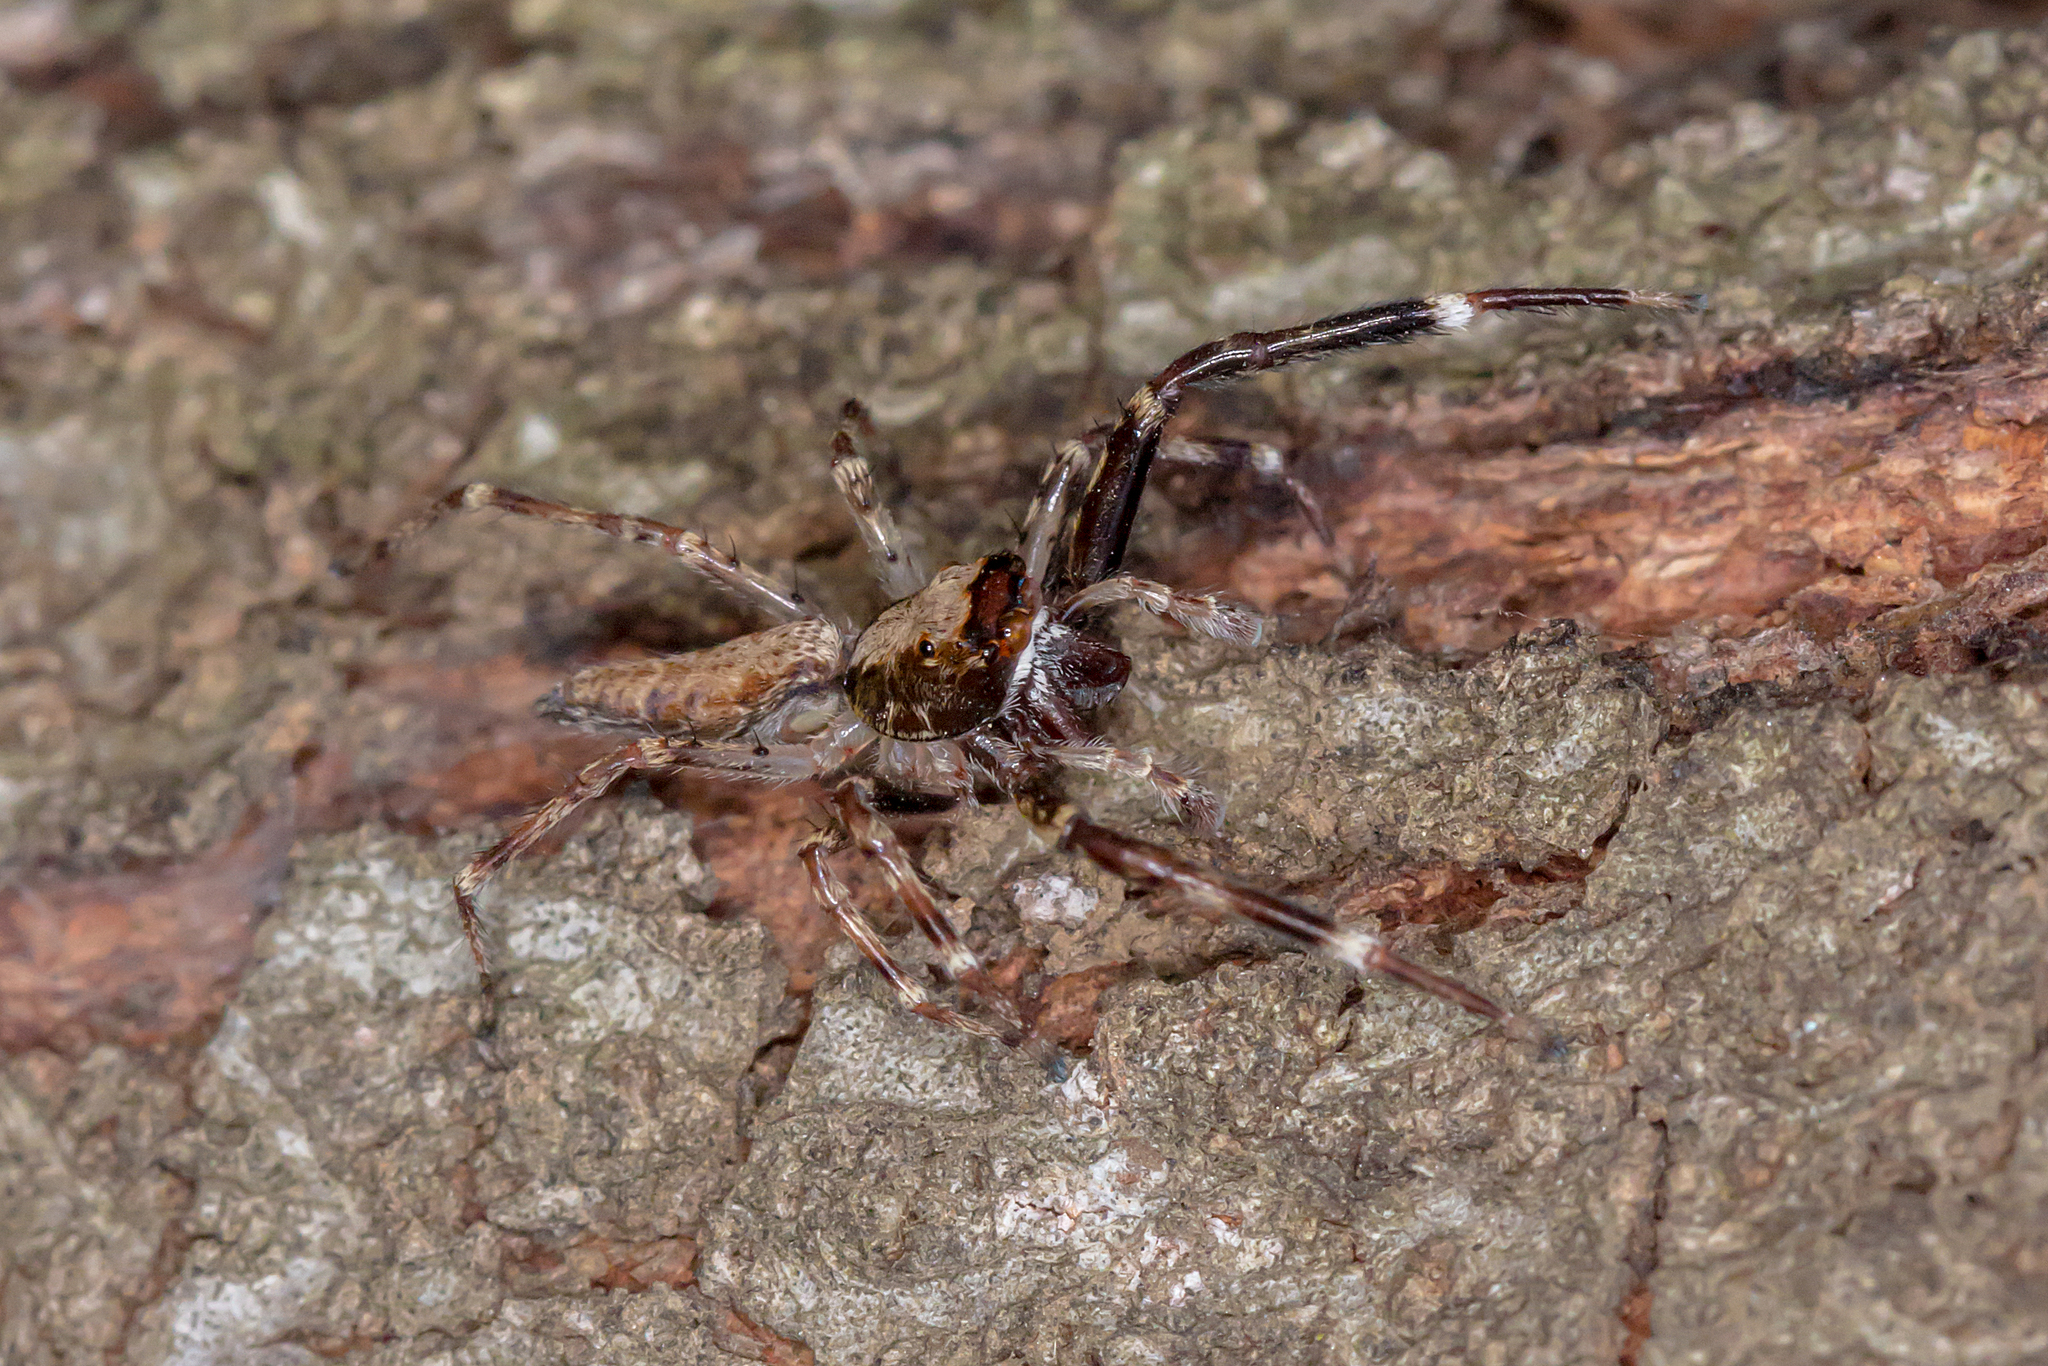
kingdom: Animalia
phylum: Arthropoda
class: Arachnida
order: Araneae
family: Salticidae
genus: Helpis
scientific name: Helpis minitabunda
